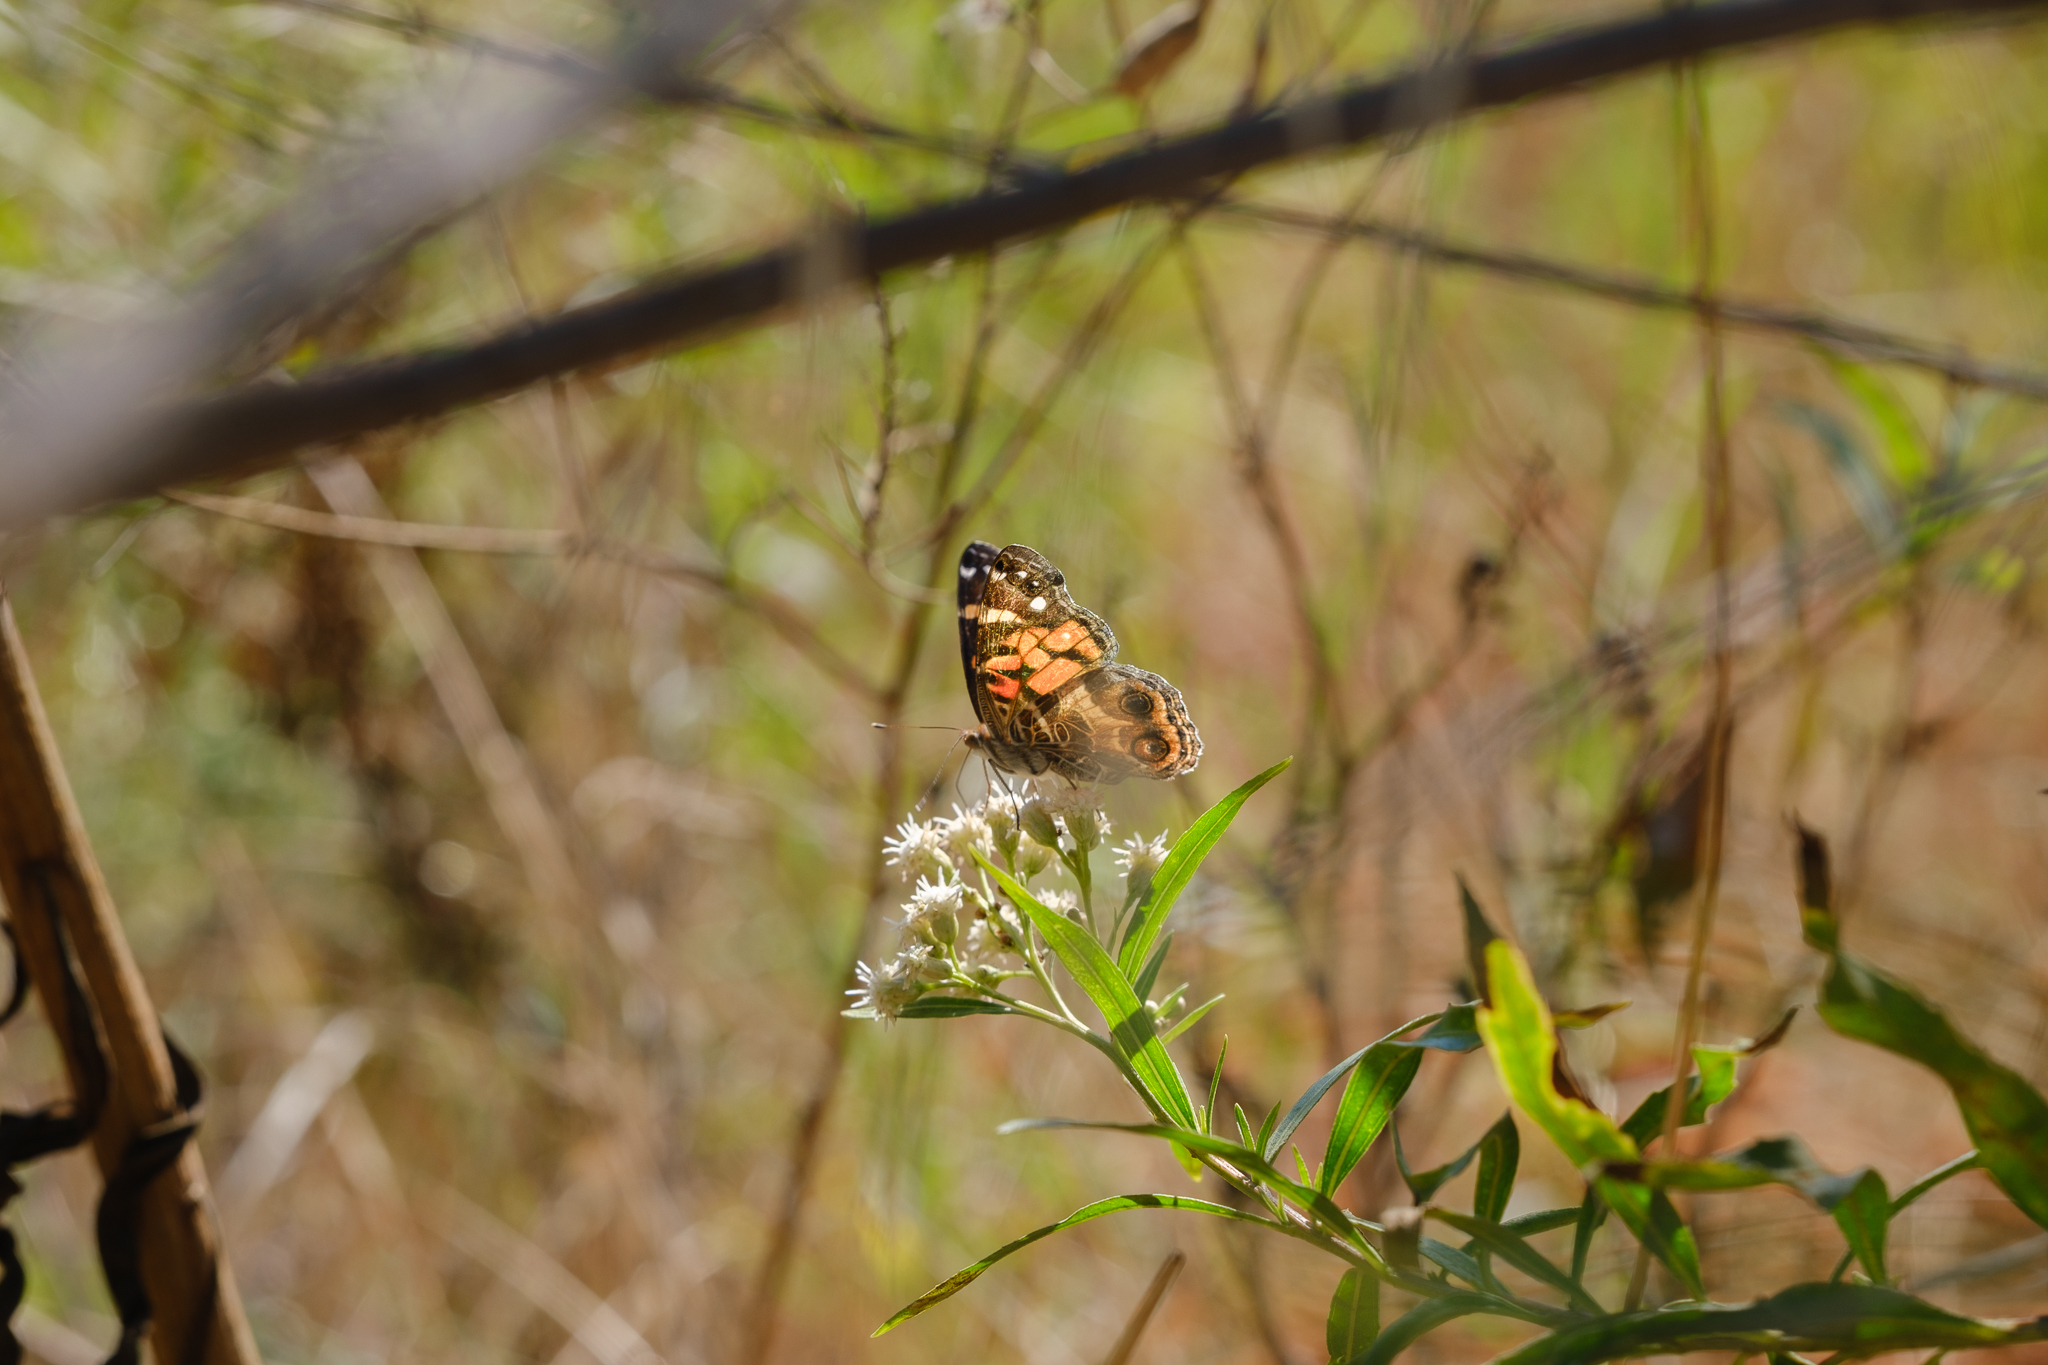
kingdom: Animalia
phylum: Arthropoda
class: Insecta
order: Lepidoptera
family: Nymphalidae
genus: Vanessa
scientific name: Vanessa virginiensis
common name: American lady
